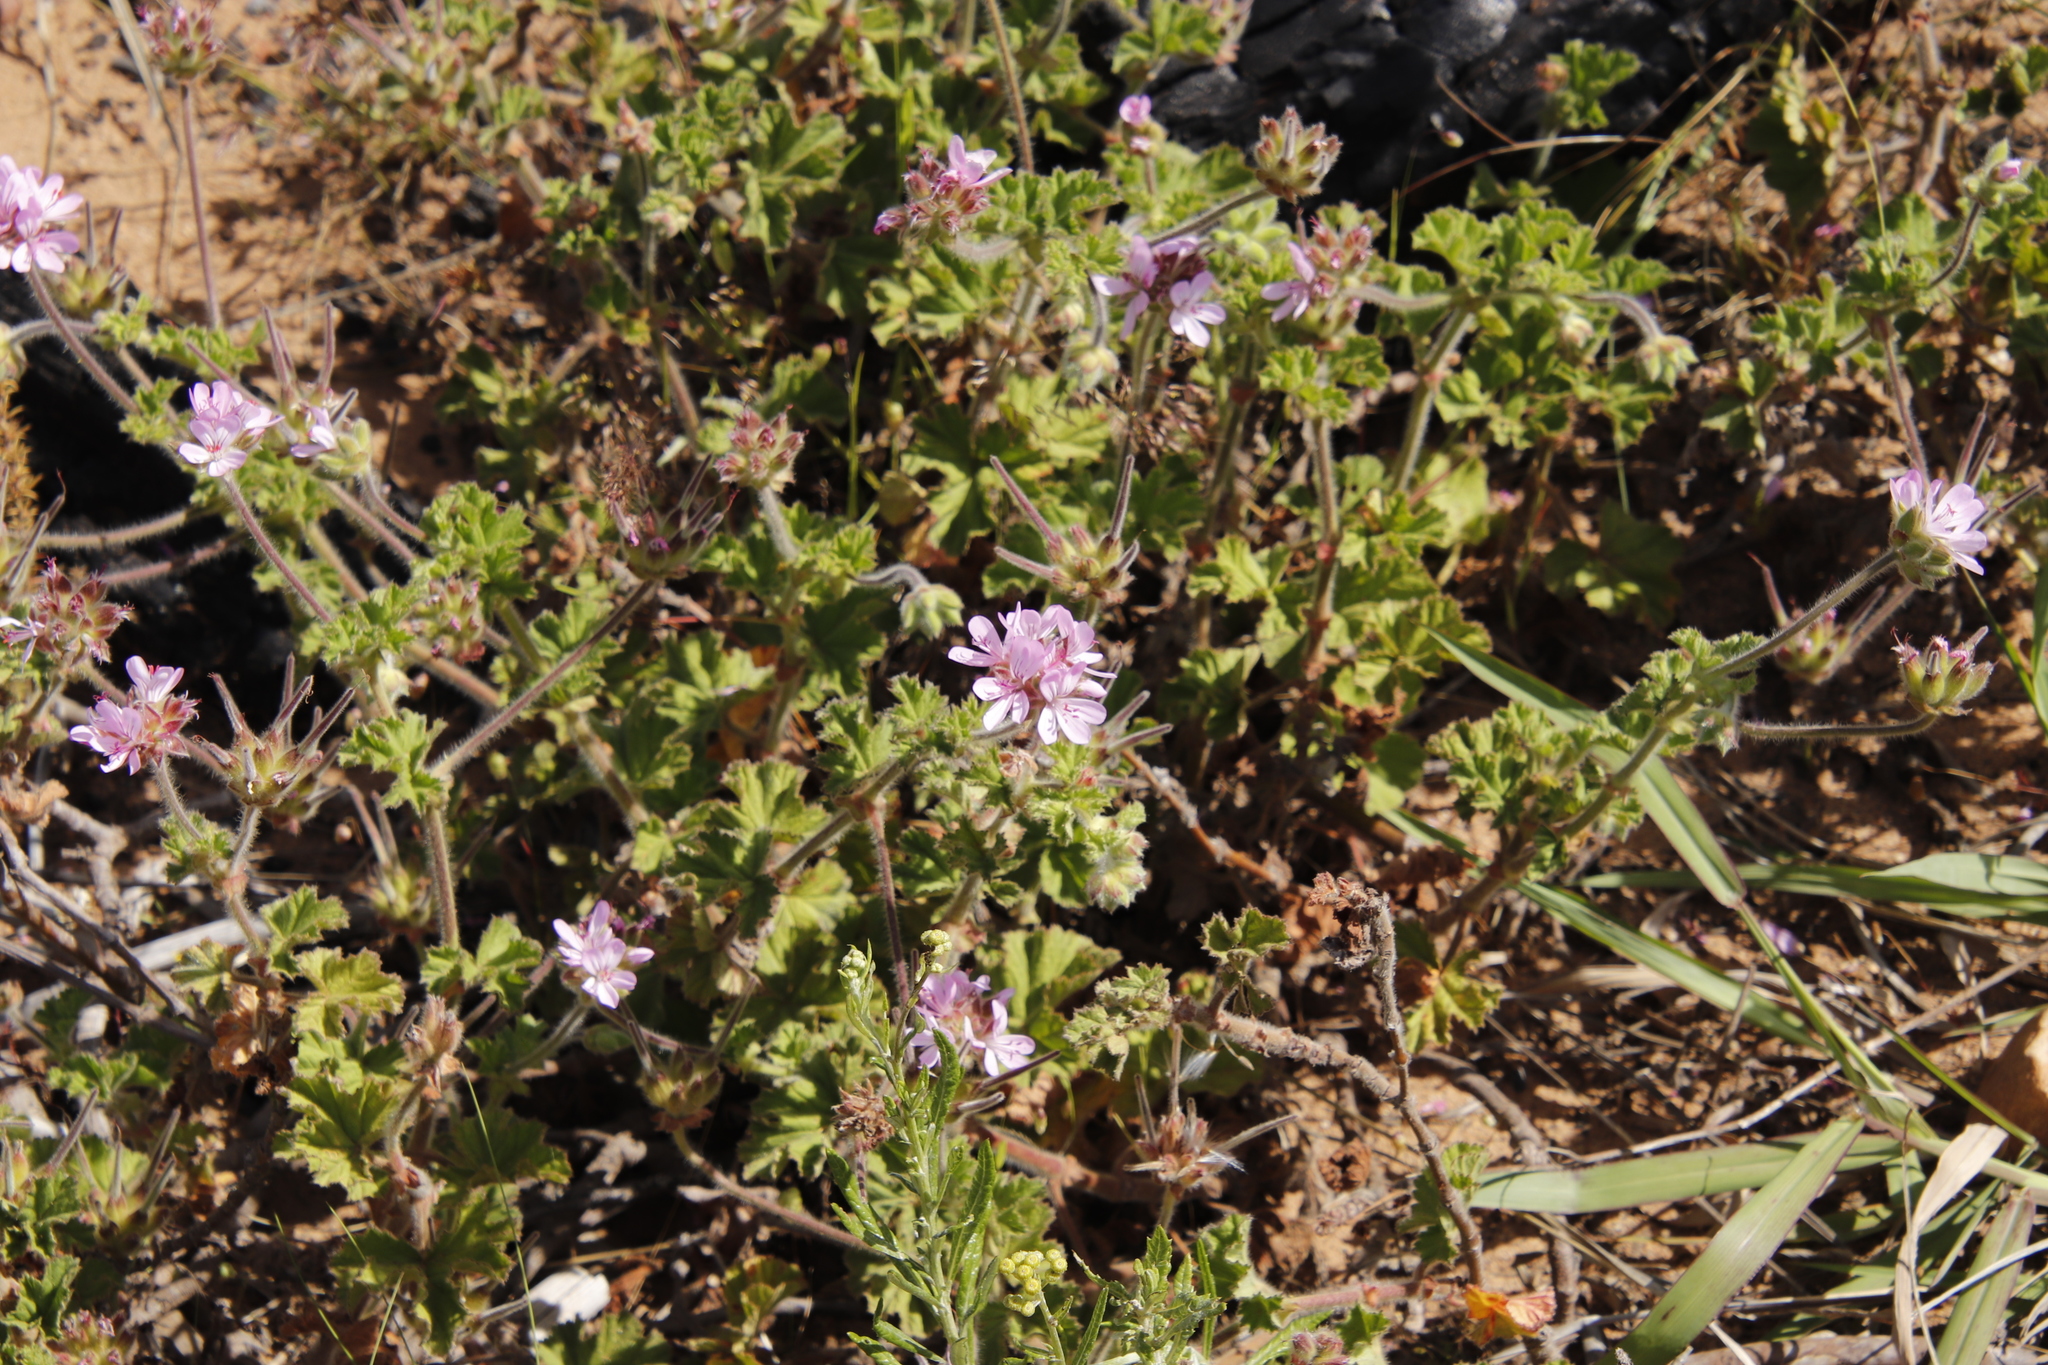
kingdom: Plantae
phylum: Tracheophyta
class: Magnoliopsida
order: Geraniales
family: Geraniaceae
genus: Pelargonium
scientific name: Pelargonium capitatum
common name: Rose scented geranium
